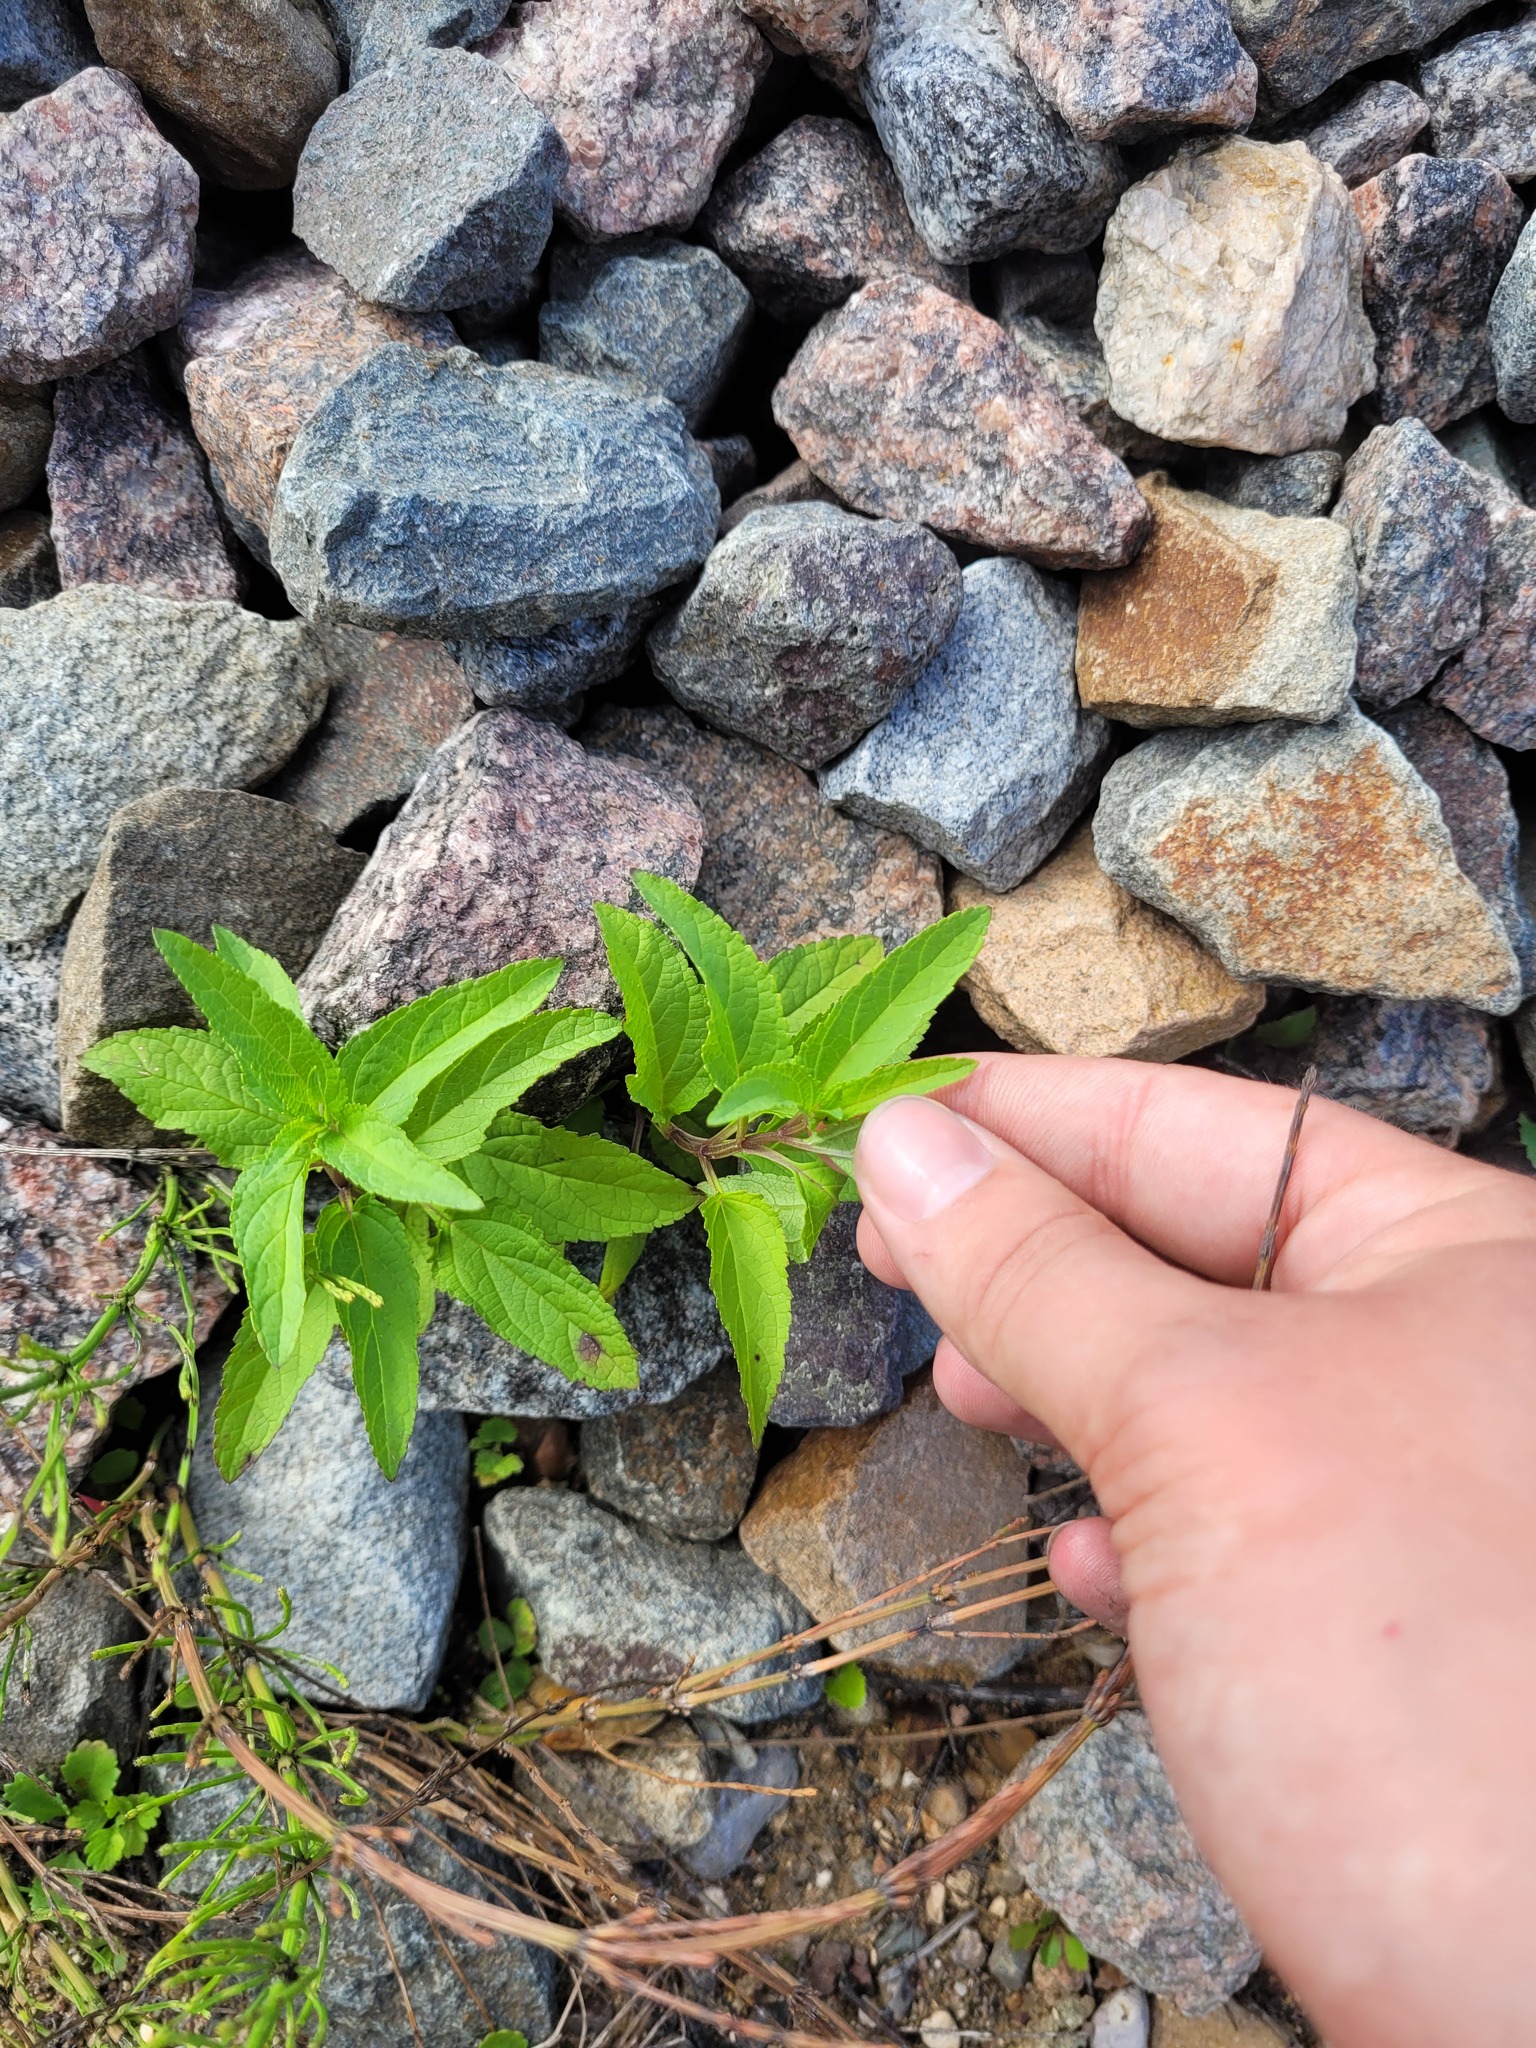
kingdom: Plantae
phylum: Tracheophyta
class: Magnoliopsida
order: Lamiales
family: Scrophulariaceae
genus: Scrophularia
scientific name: Scrophularia nodosa
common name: Common figwort
